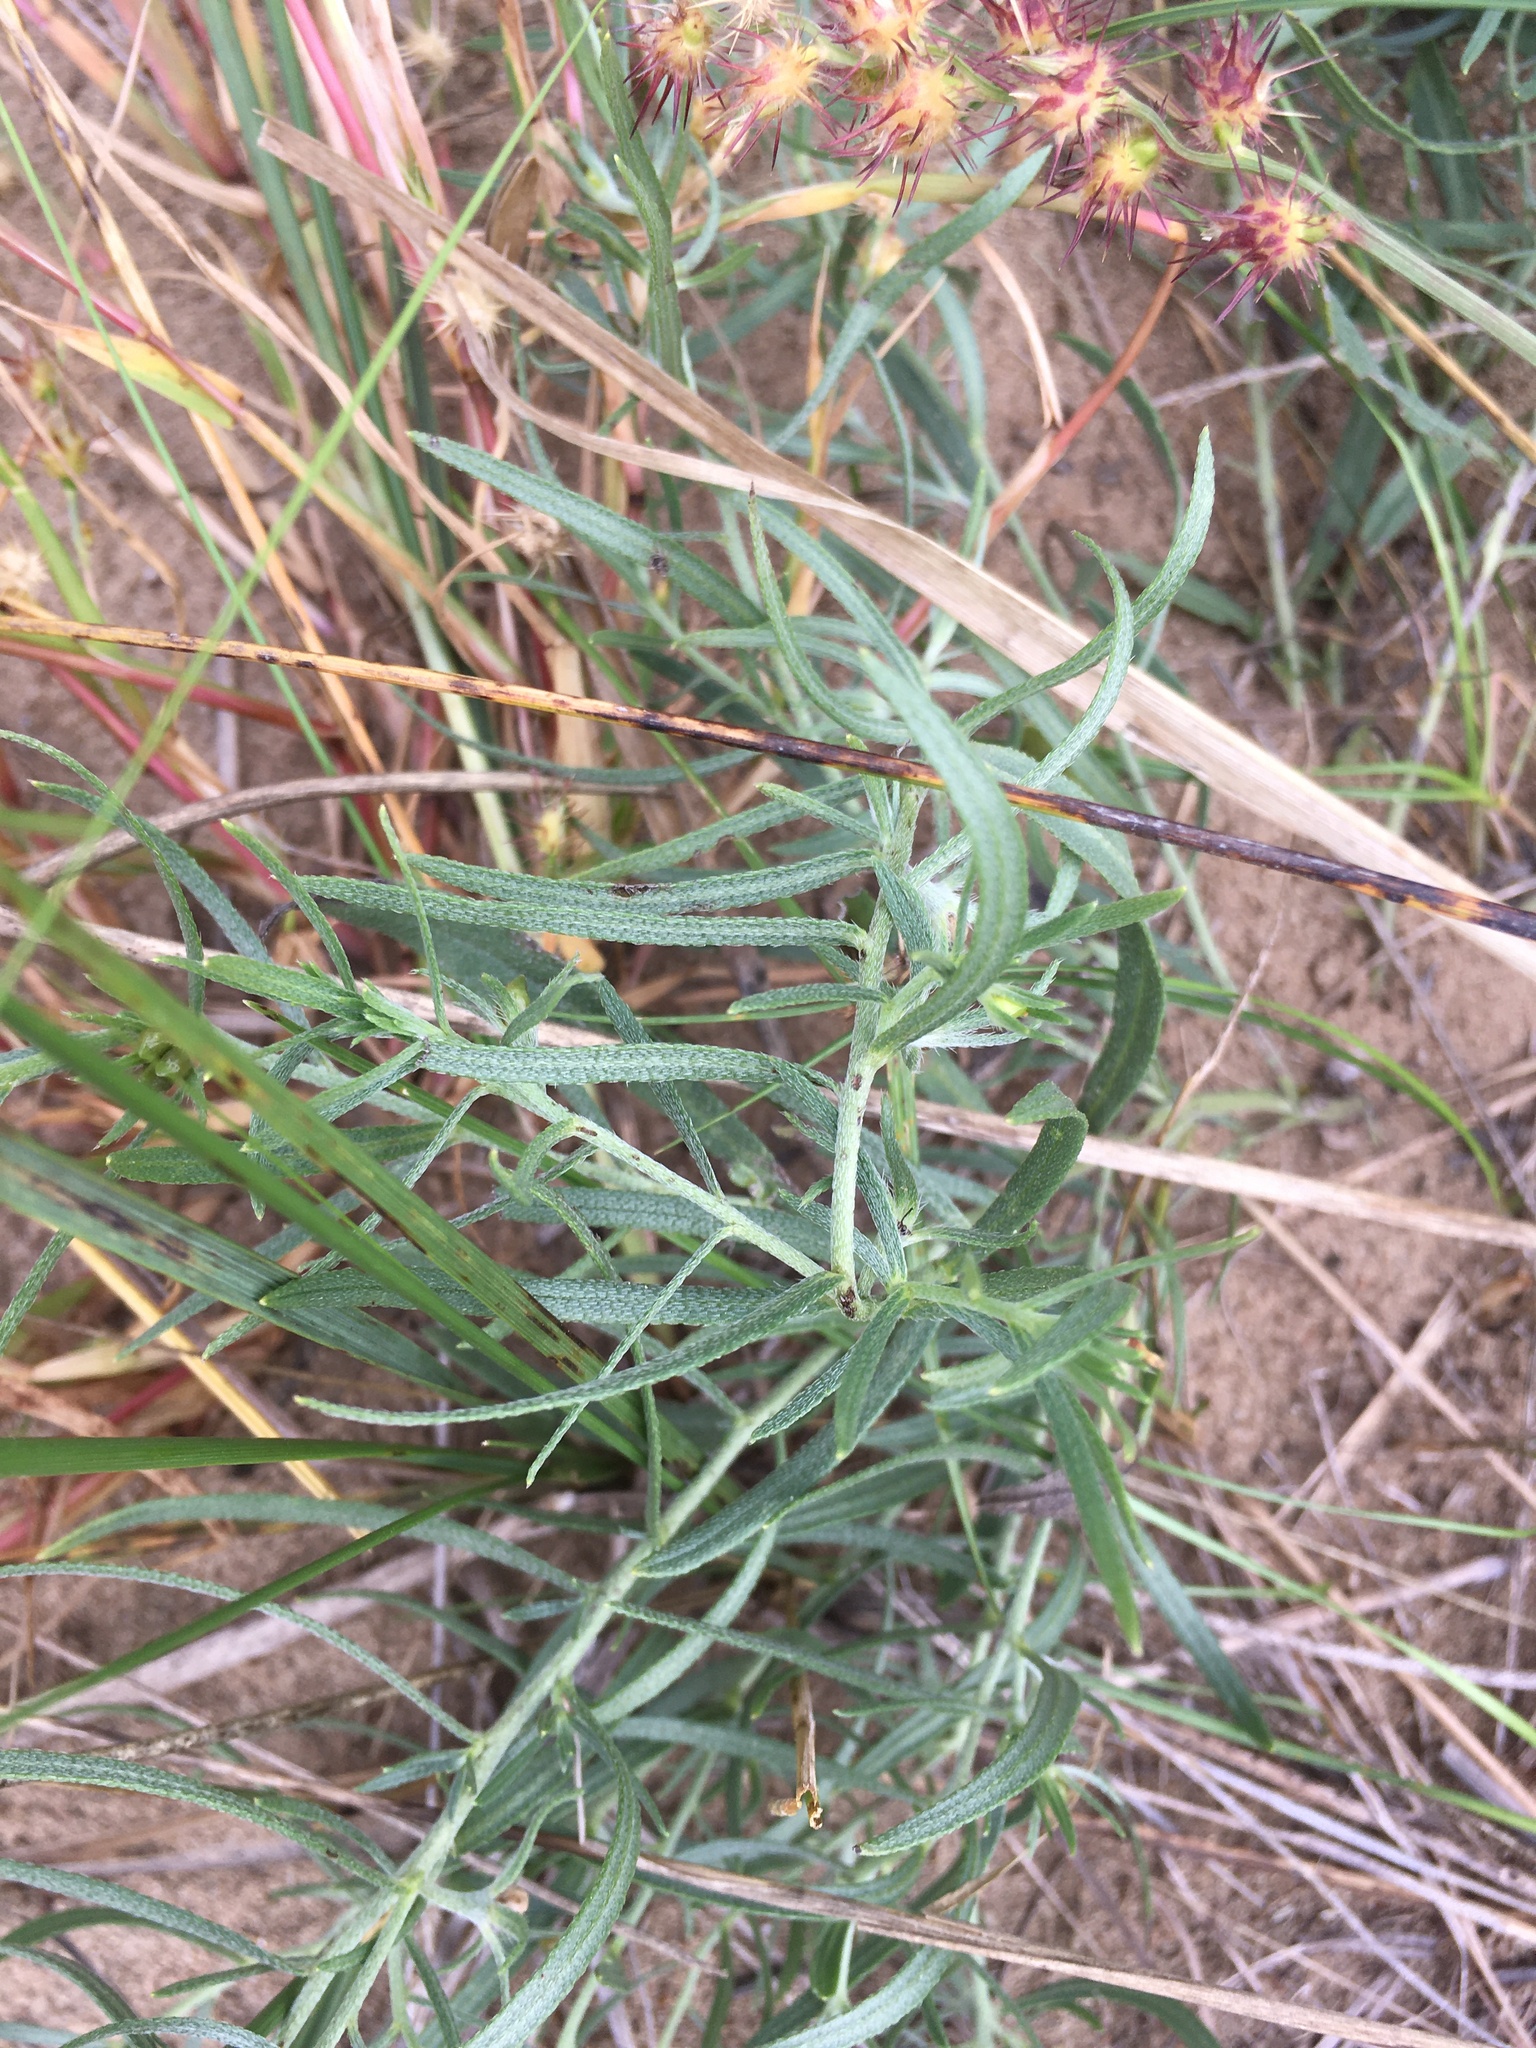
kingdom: Plantae
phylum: Tracheophyta
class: Magnoliopsida
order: Boraginales
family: Boraginaceae
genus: Lithospermum
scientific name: Lithospermum incisum
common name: Fringed gromwell
